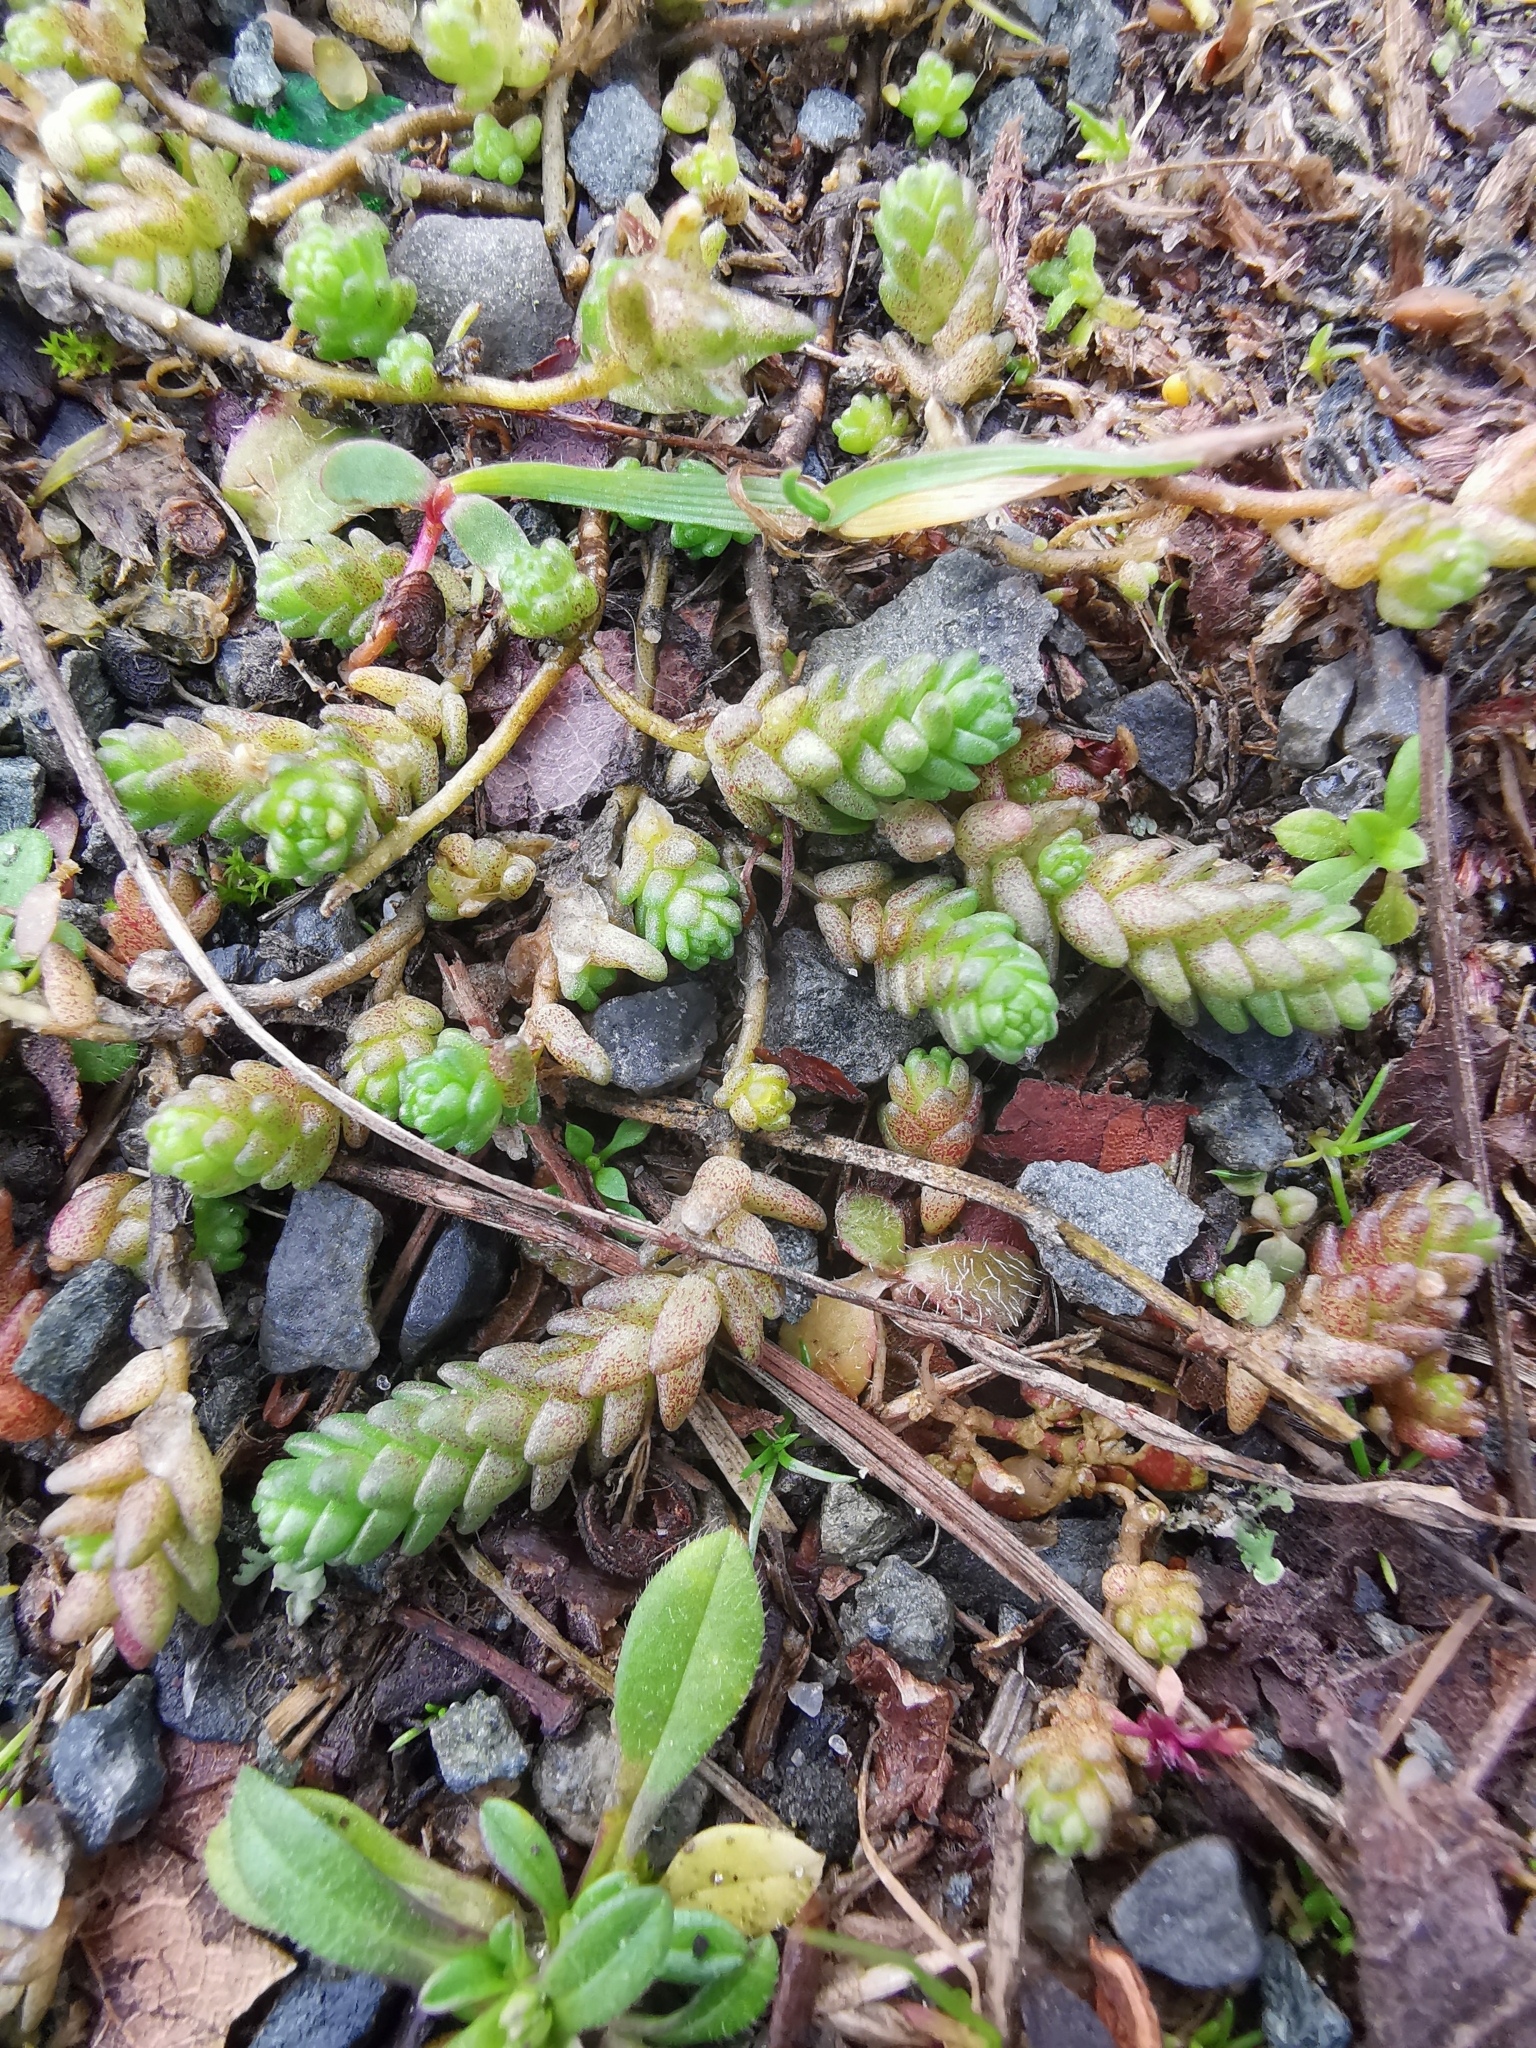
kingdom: Plantae
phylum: Tracheophyta
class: Magnoliopsida
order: Saxifragales
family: Crassulaceae
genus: Sedum
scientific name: Sedum acre
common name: Biting stonecrop
